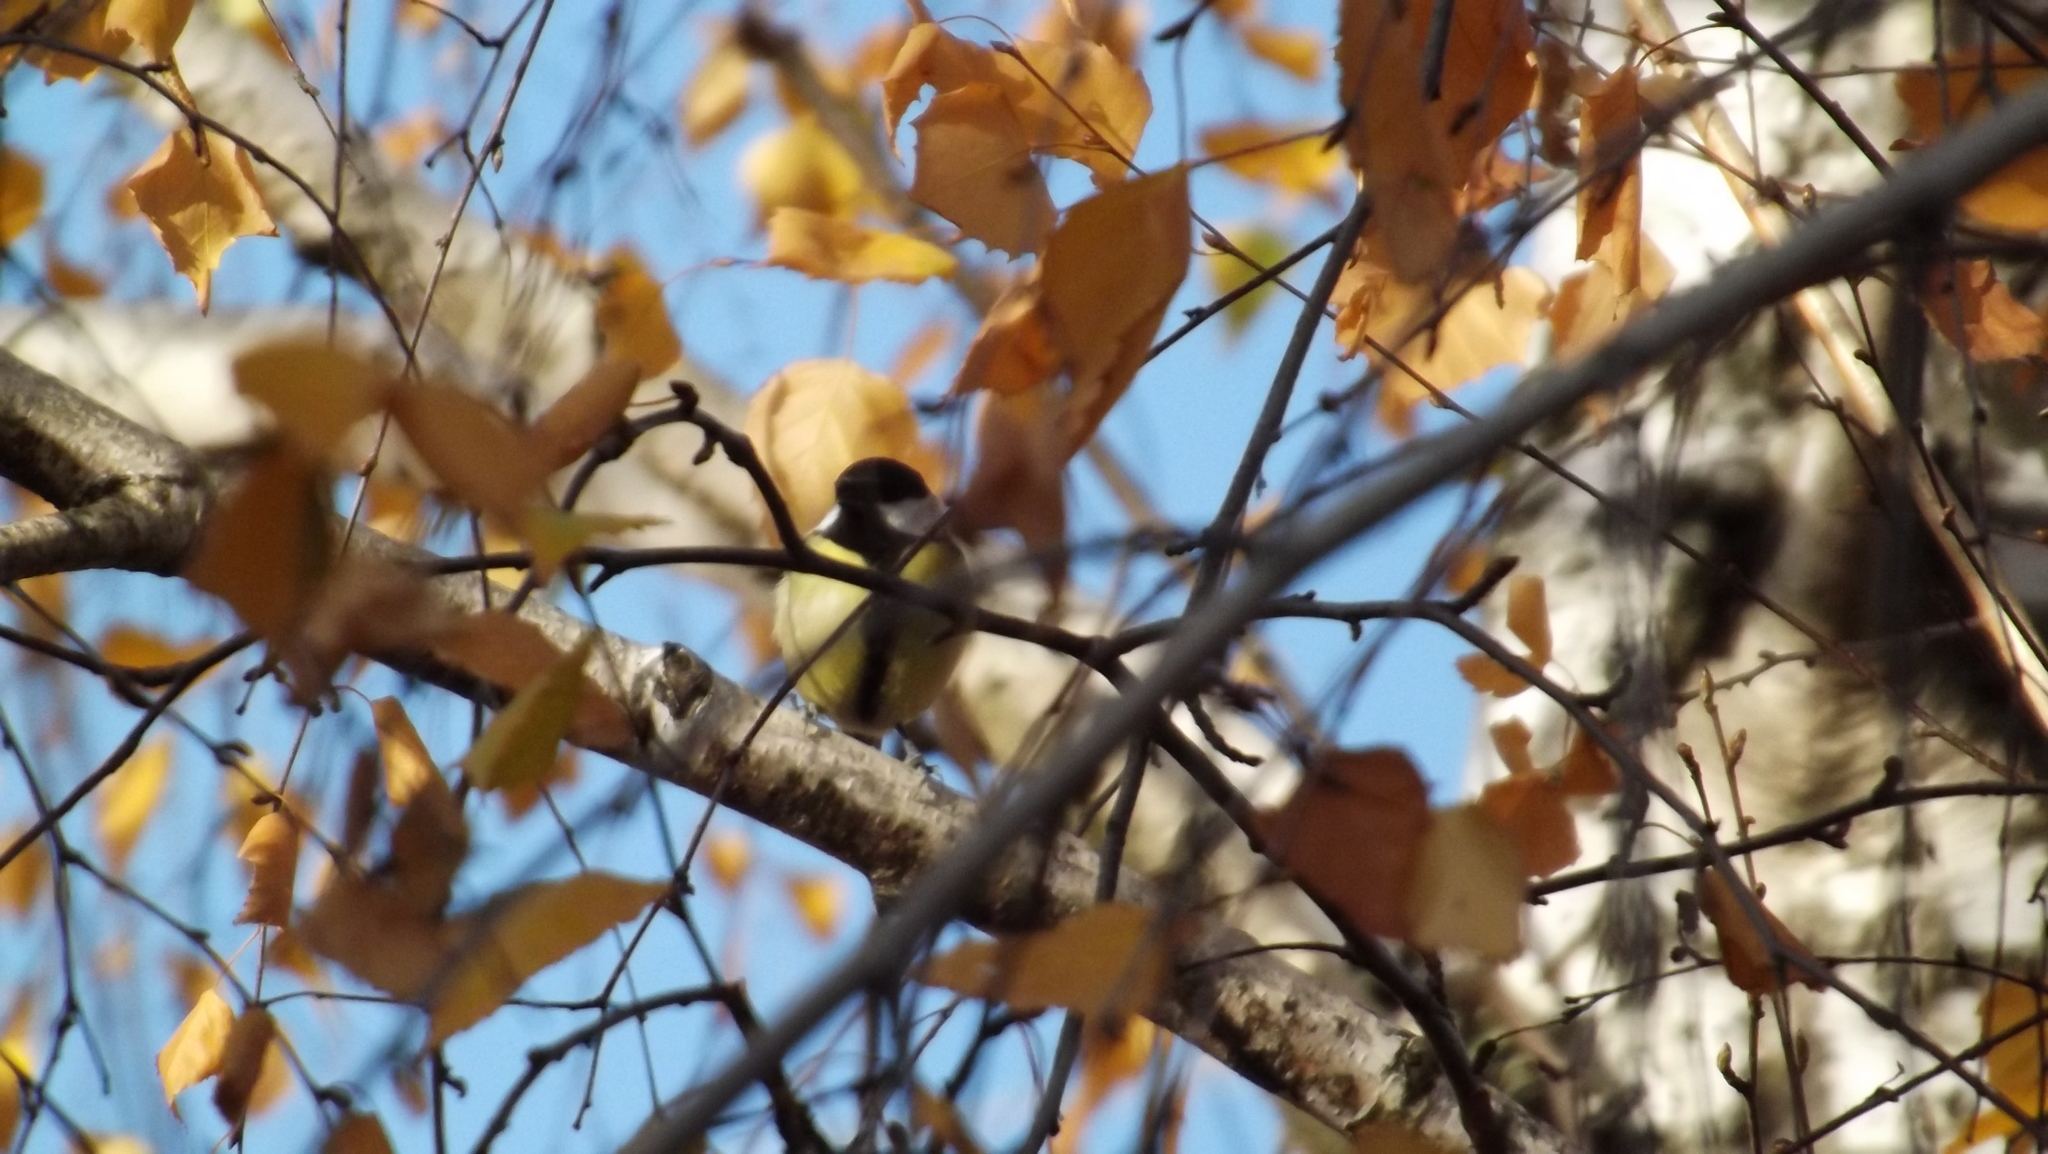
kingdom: Animalia
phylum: Chordata
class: Aves
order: Passeriformes
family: Paridae
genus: Parus
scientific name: Parus major
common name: Great tit
